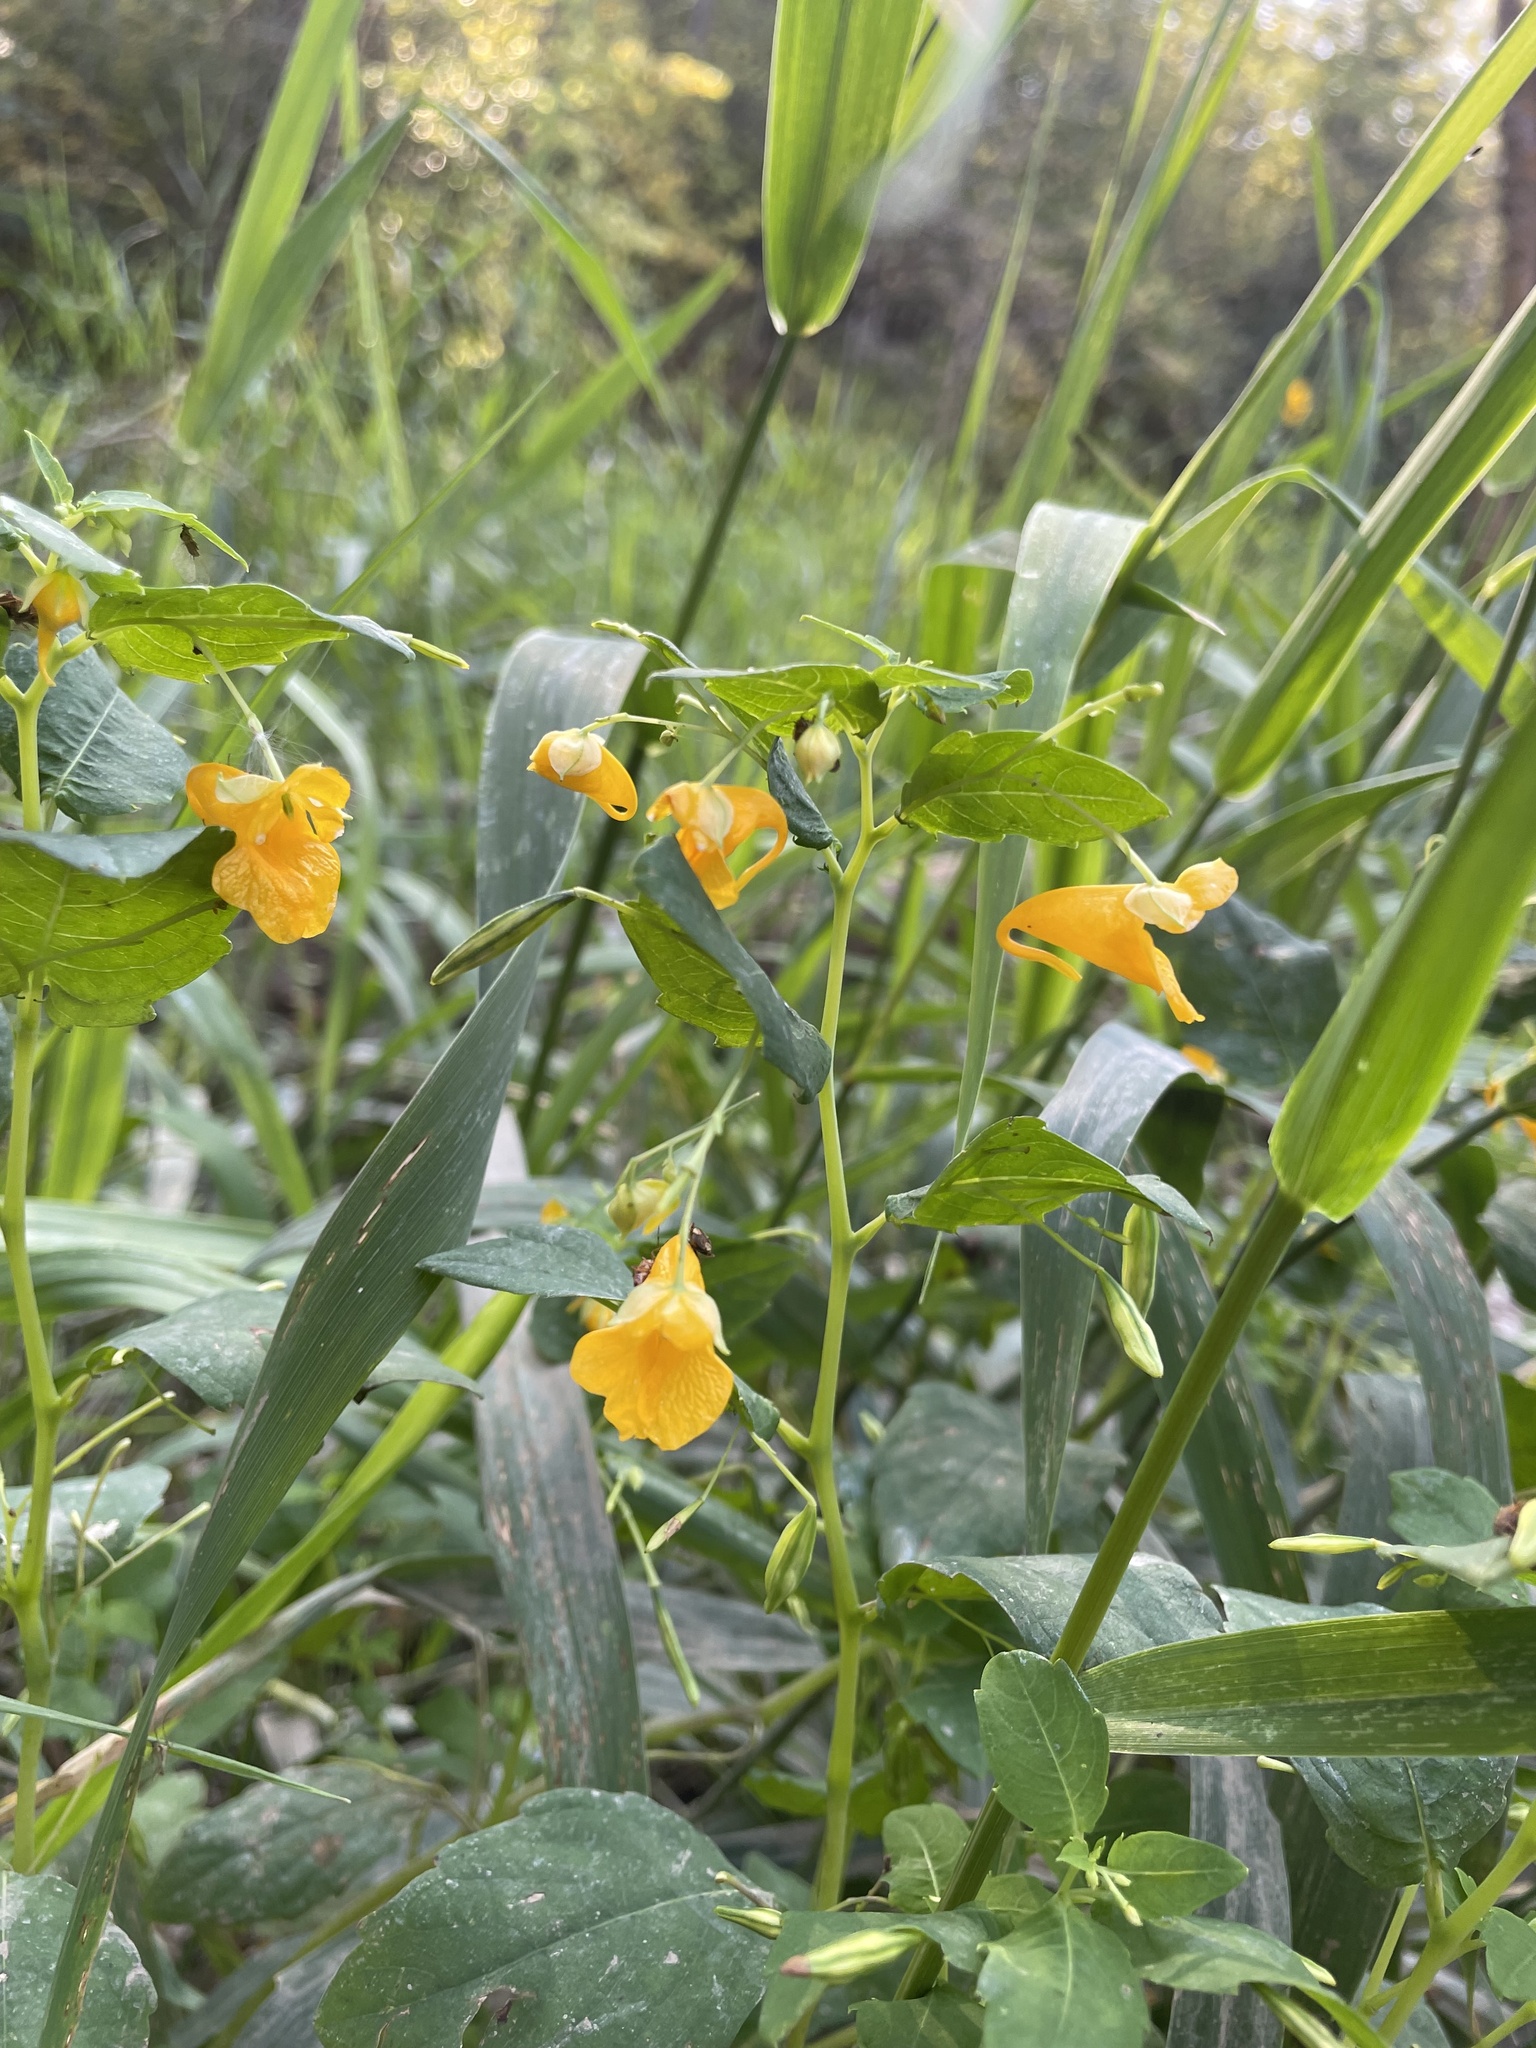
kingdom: Plantae
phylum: Tracheophyta
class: Magnoliopsida
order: Ericales
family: Balsaminaceae
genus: Impatiens
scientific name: Impatiens capensis
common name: Orange balsam
